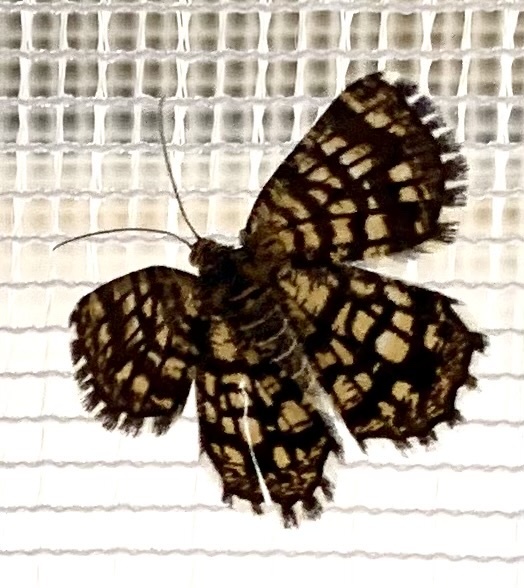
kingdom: Animalia
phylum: Arthropoda
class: Insecta
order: Lepidoptera
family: Geometridae
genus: Chiasmia
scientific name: Chiasmia clathrata
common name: Latticed heath
